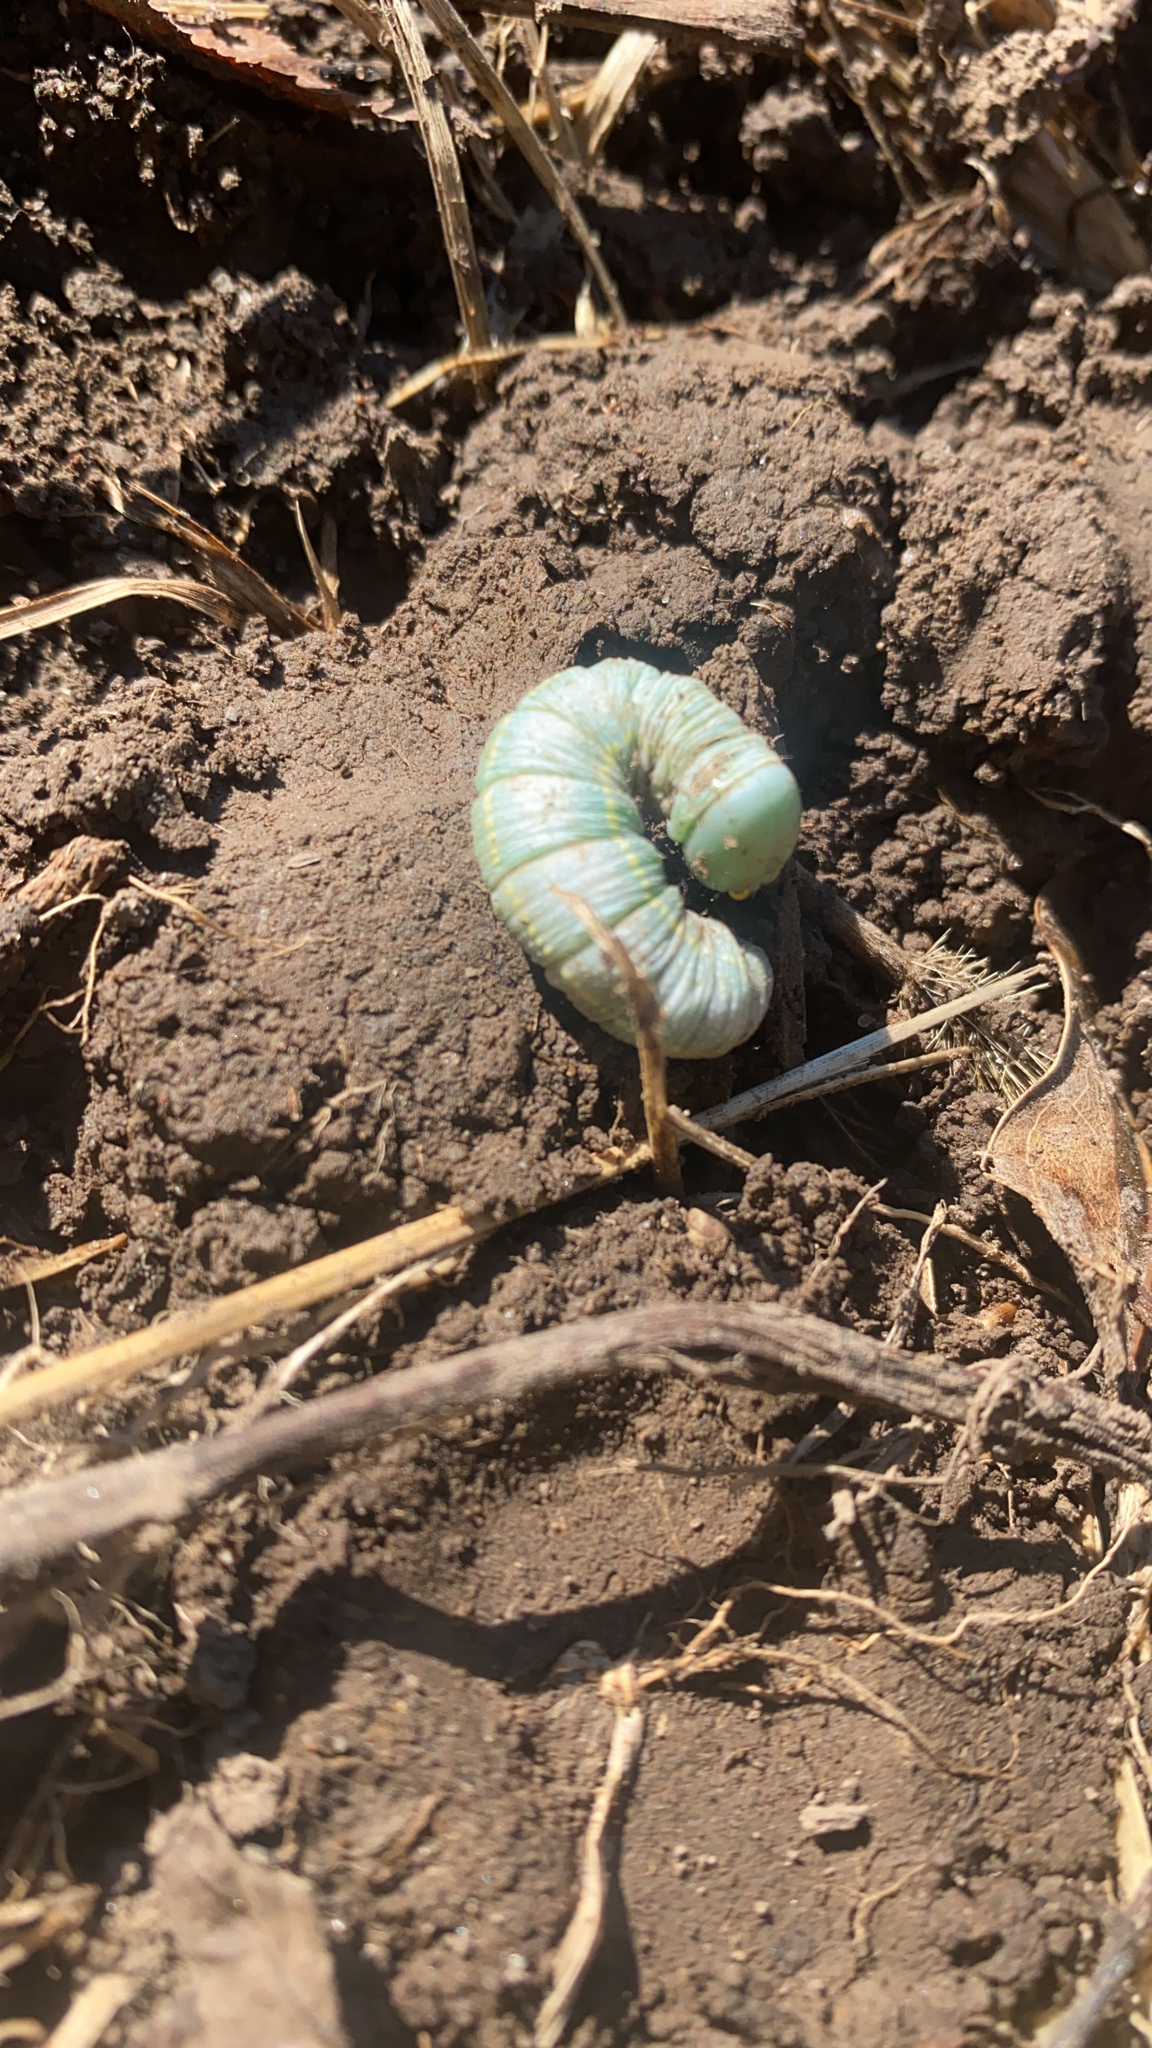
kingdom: Animalia
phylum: Arthropoda
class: Insecta
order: Lepidoptera
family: Notodontidae
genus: Nadata
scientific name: Nadata gibbosa
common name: White-dotted prominent
